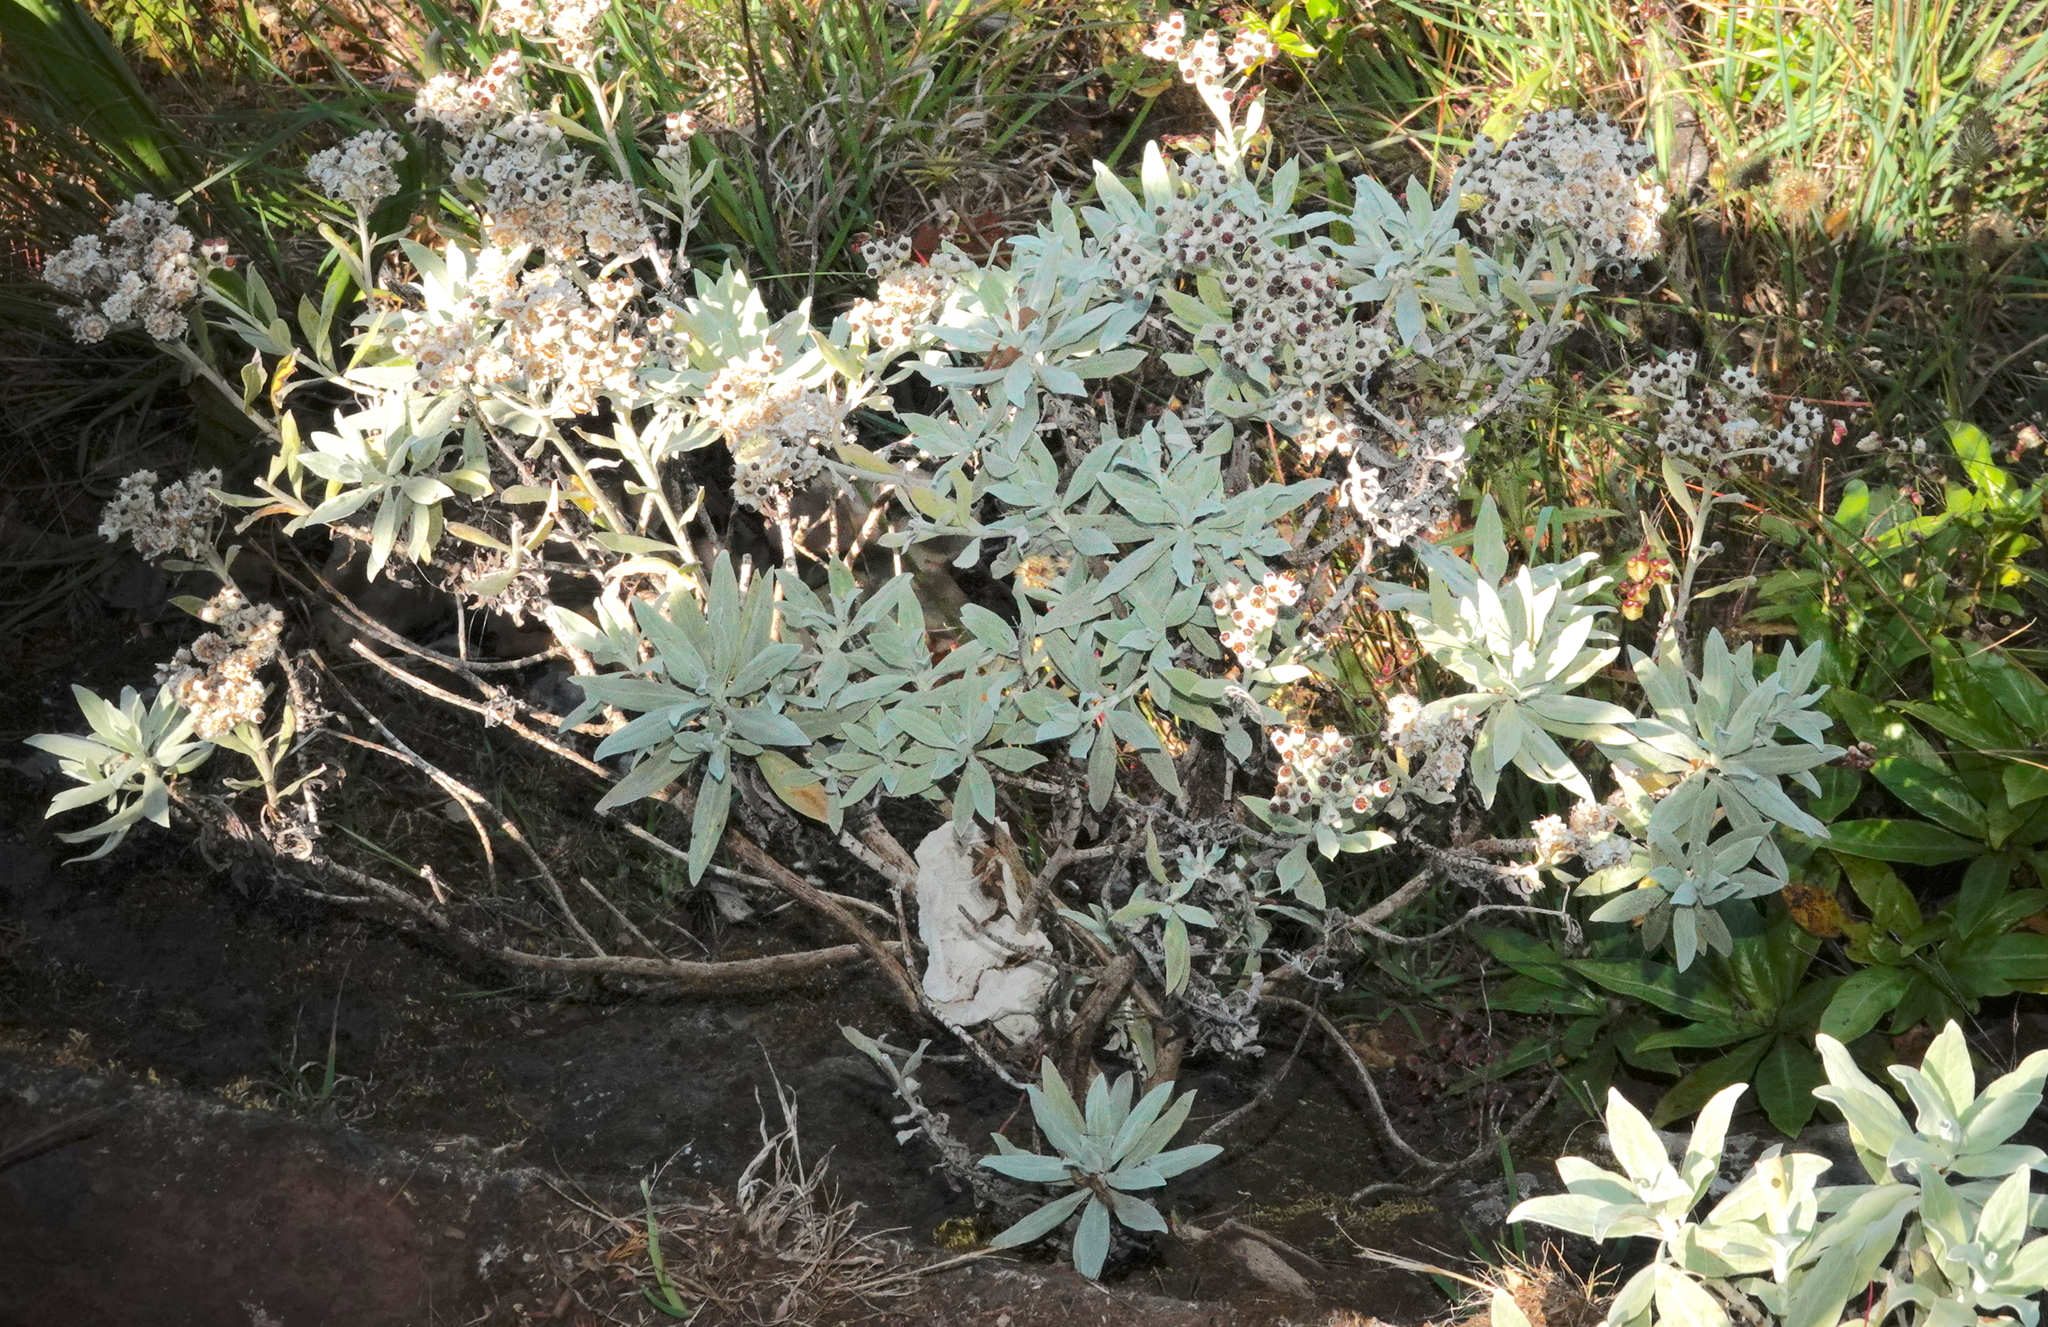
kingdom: Plantae
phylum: Tracheophyta
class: Magnoliopsida
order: Asterales
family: Asteraceae
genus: Helichrysum
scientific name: Helichrysum melaleucum
